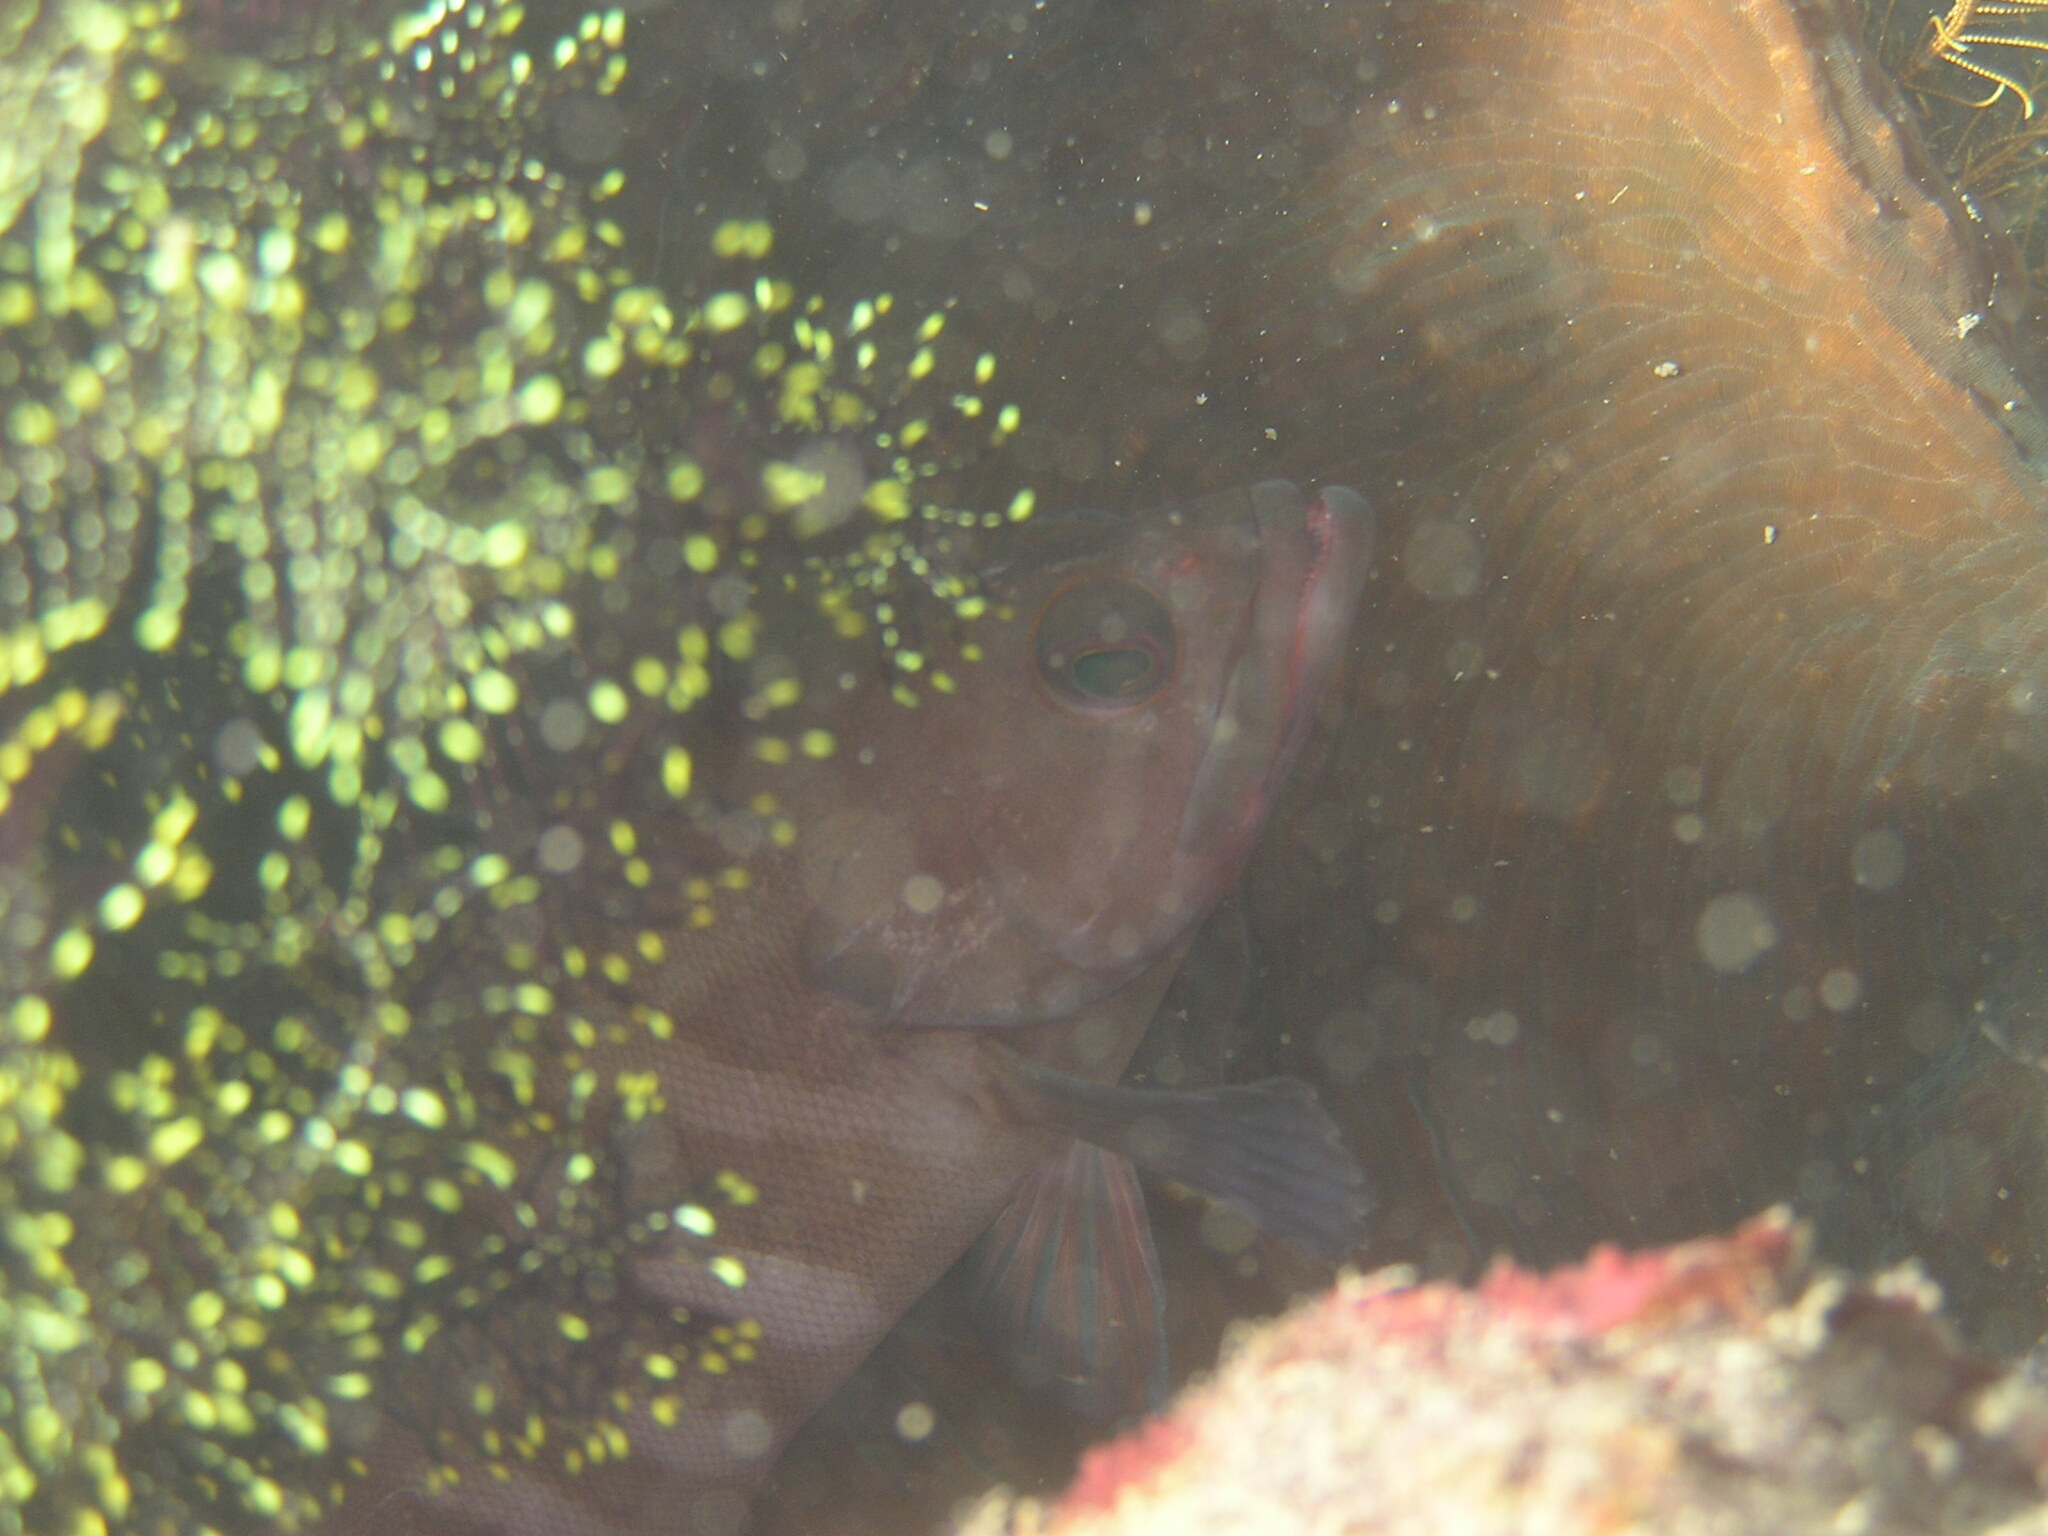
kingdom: Animalia
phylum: Chordata
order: Perciformes
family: Serranidae
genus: Cephalopholis
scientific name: Cephalopholis boenak
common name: Chocolate hind
